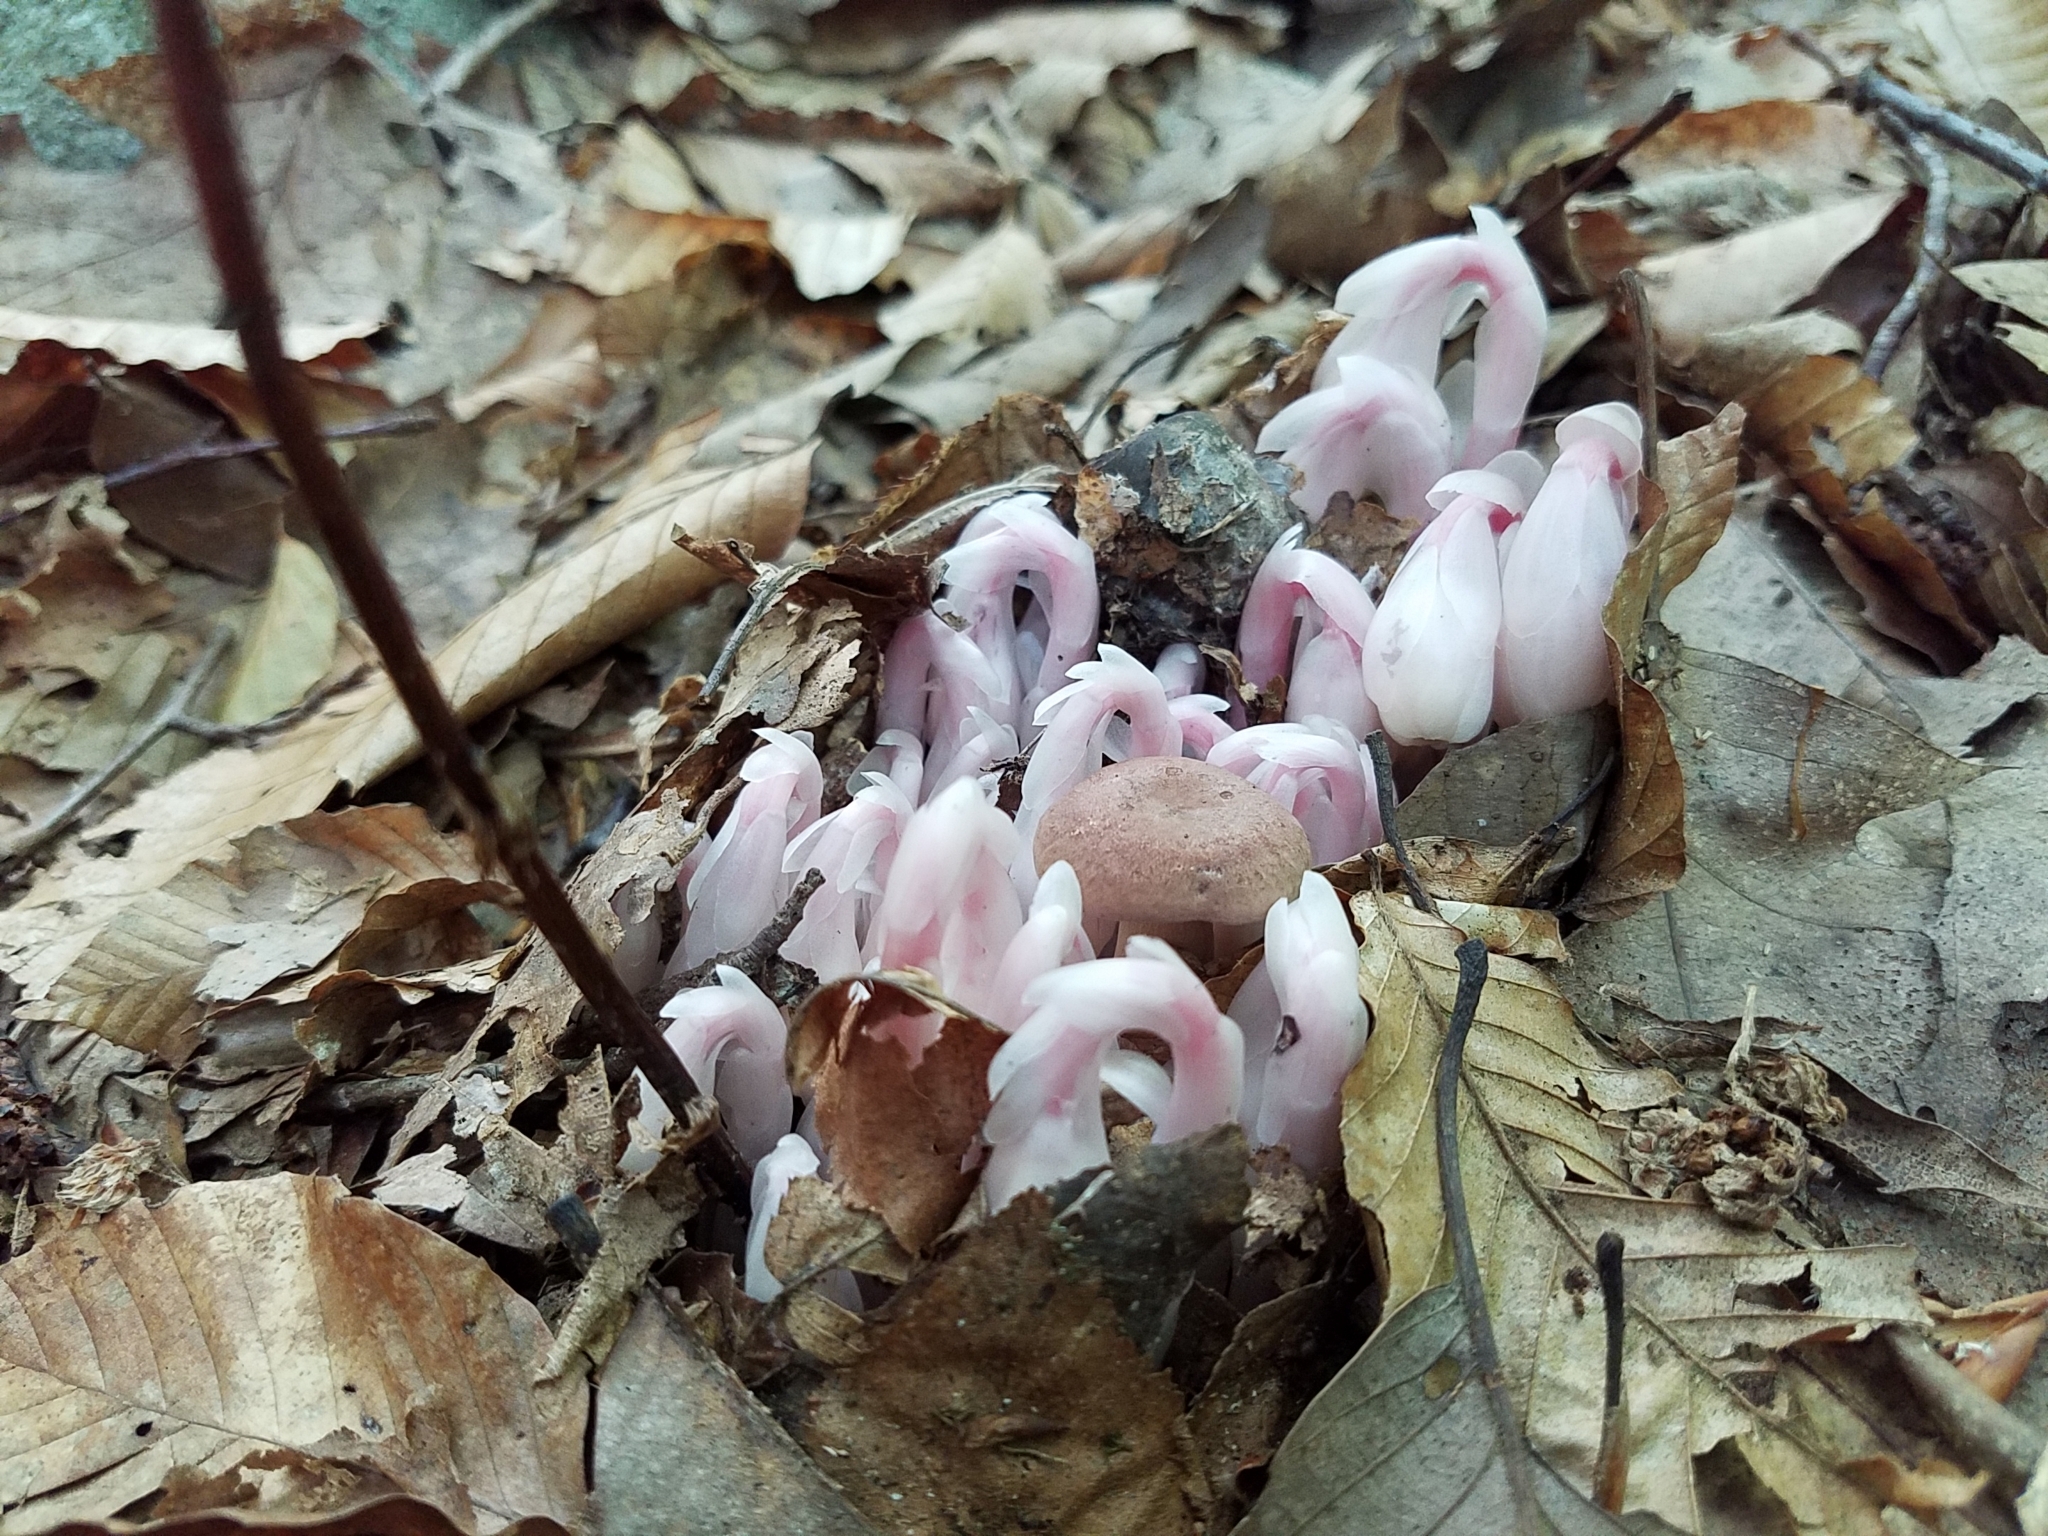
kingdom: Plantae
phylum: Tracheophyta
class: Magnoliopsida
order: Ericales
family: Ericaceae
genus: Monotropa
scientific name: Monotropa uniflora
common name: Convulsion root
